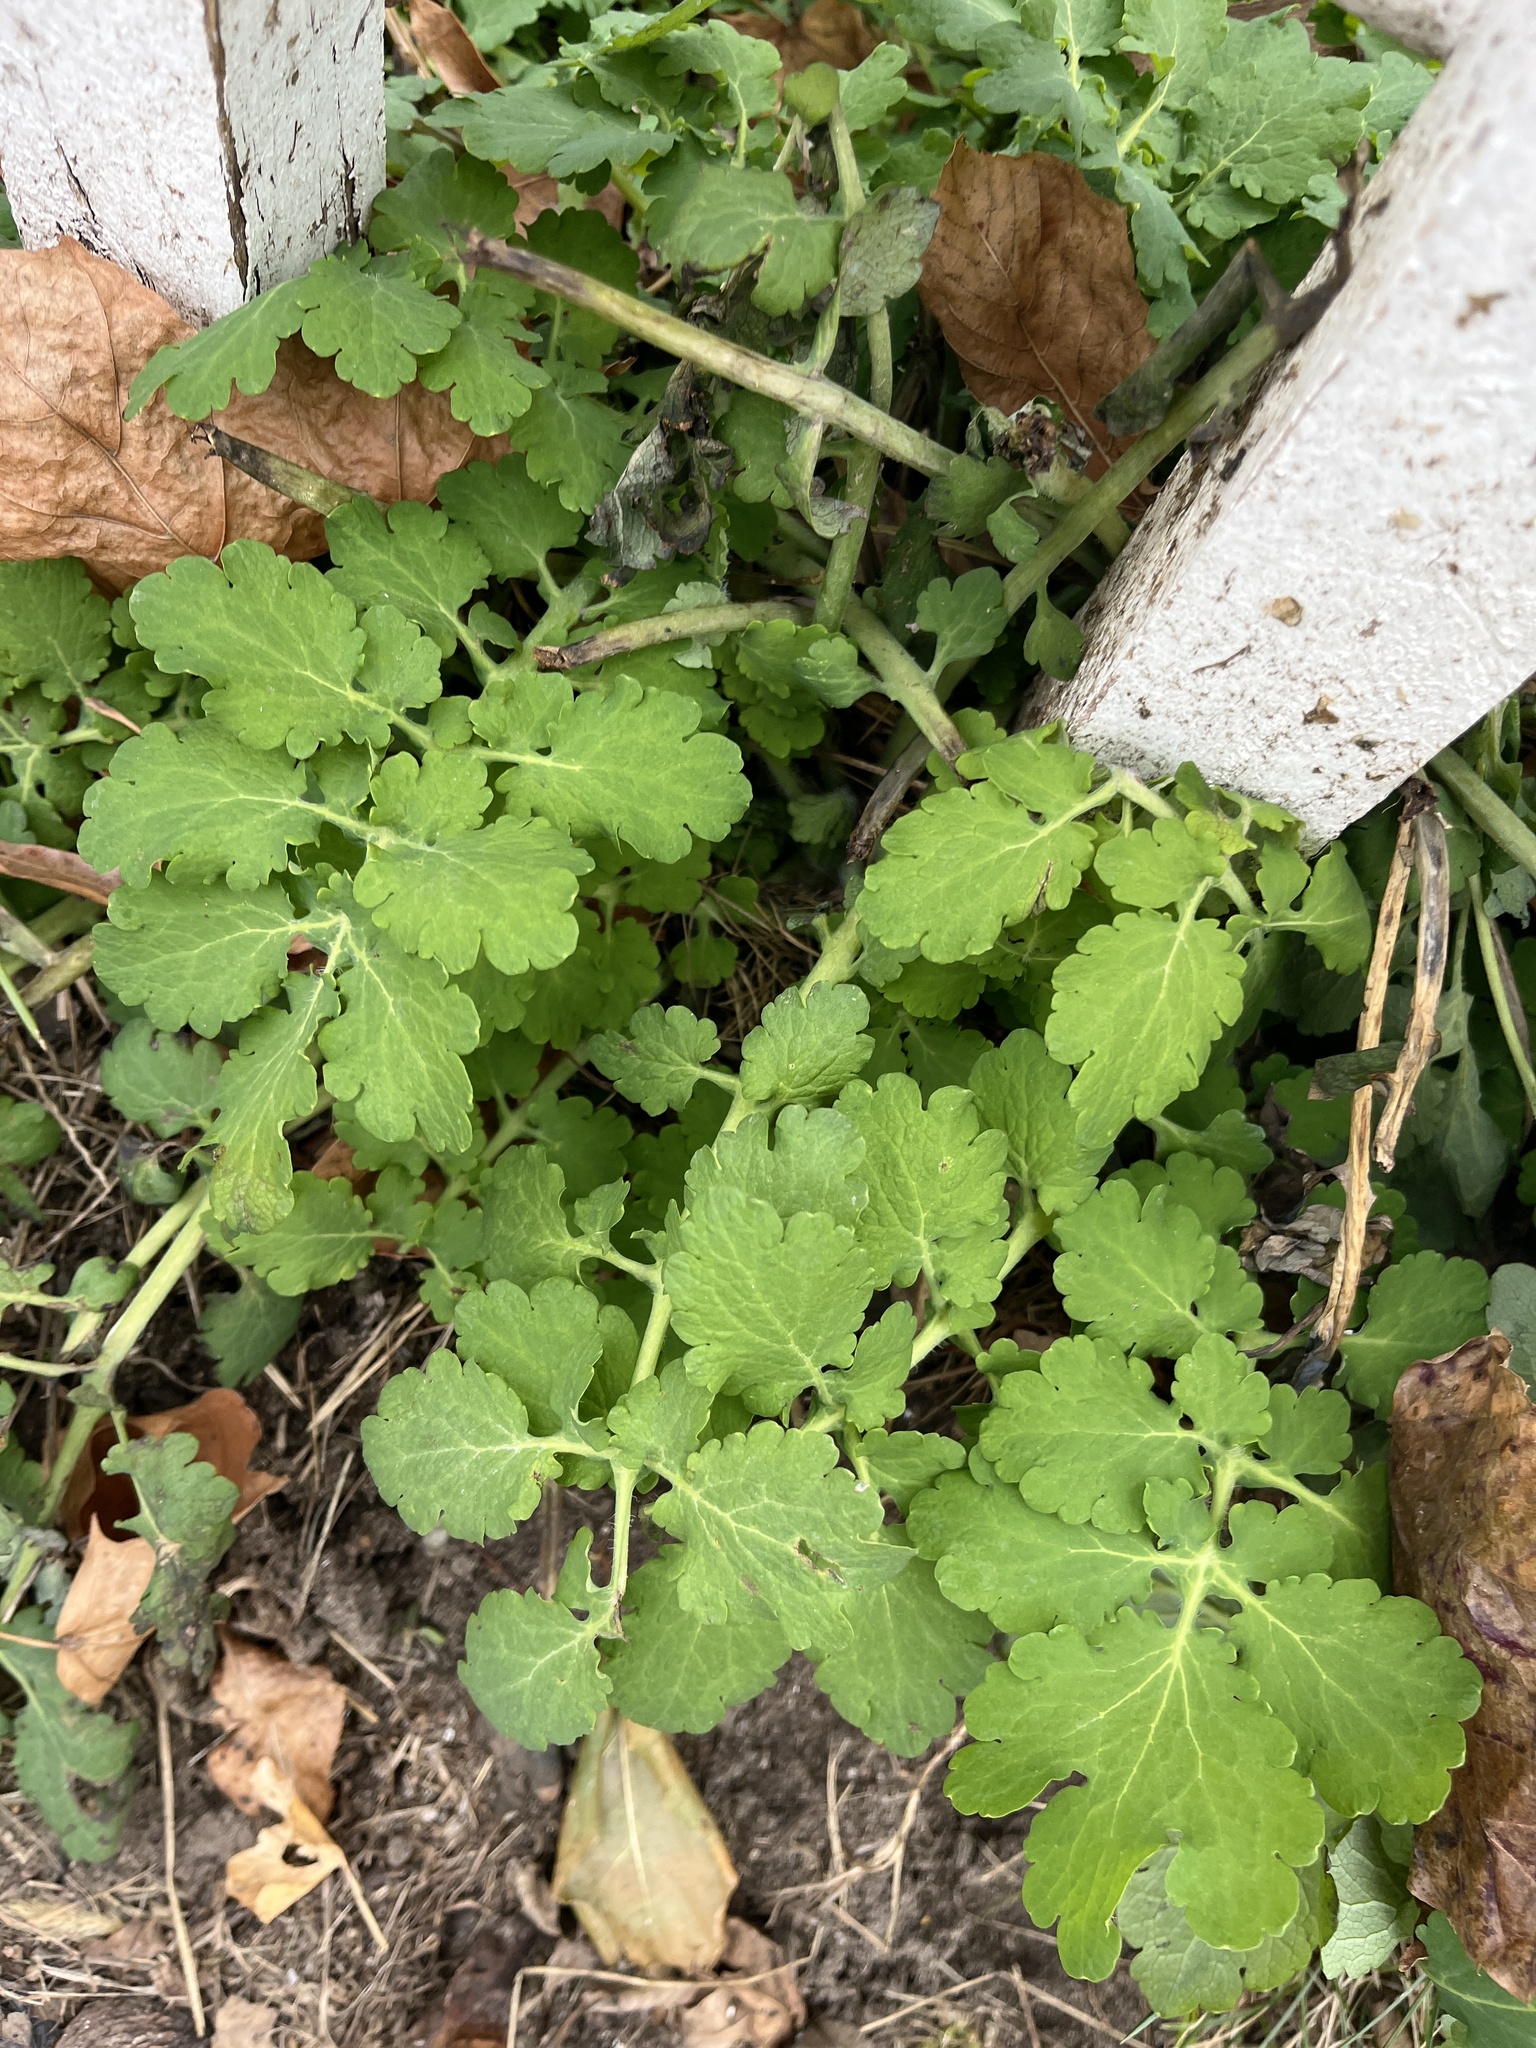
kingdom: Plantae
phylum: Tracheophyta
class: Magnoliopsida
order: Ranunculales
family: Papaveraceae
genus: Chelidonium
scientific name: Chelidonium majus
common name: Greater celandine
